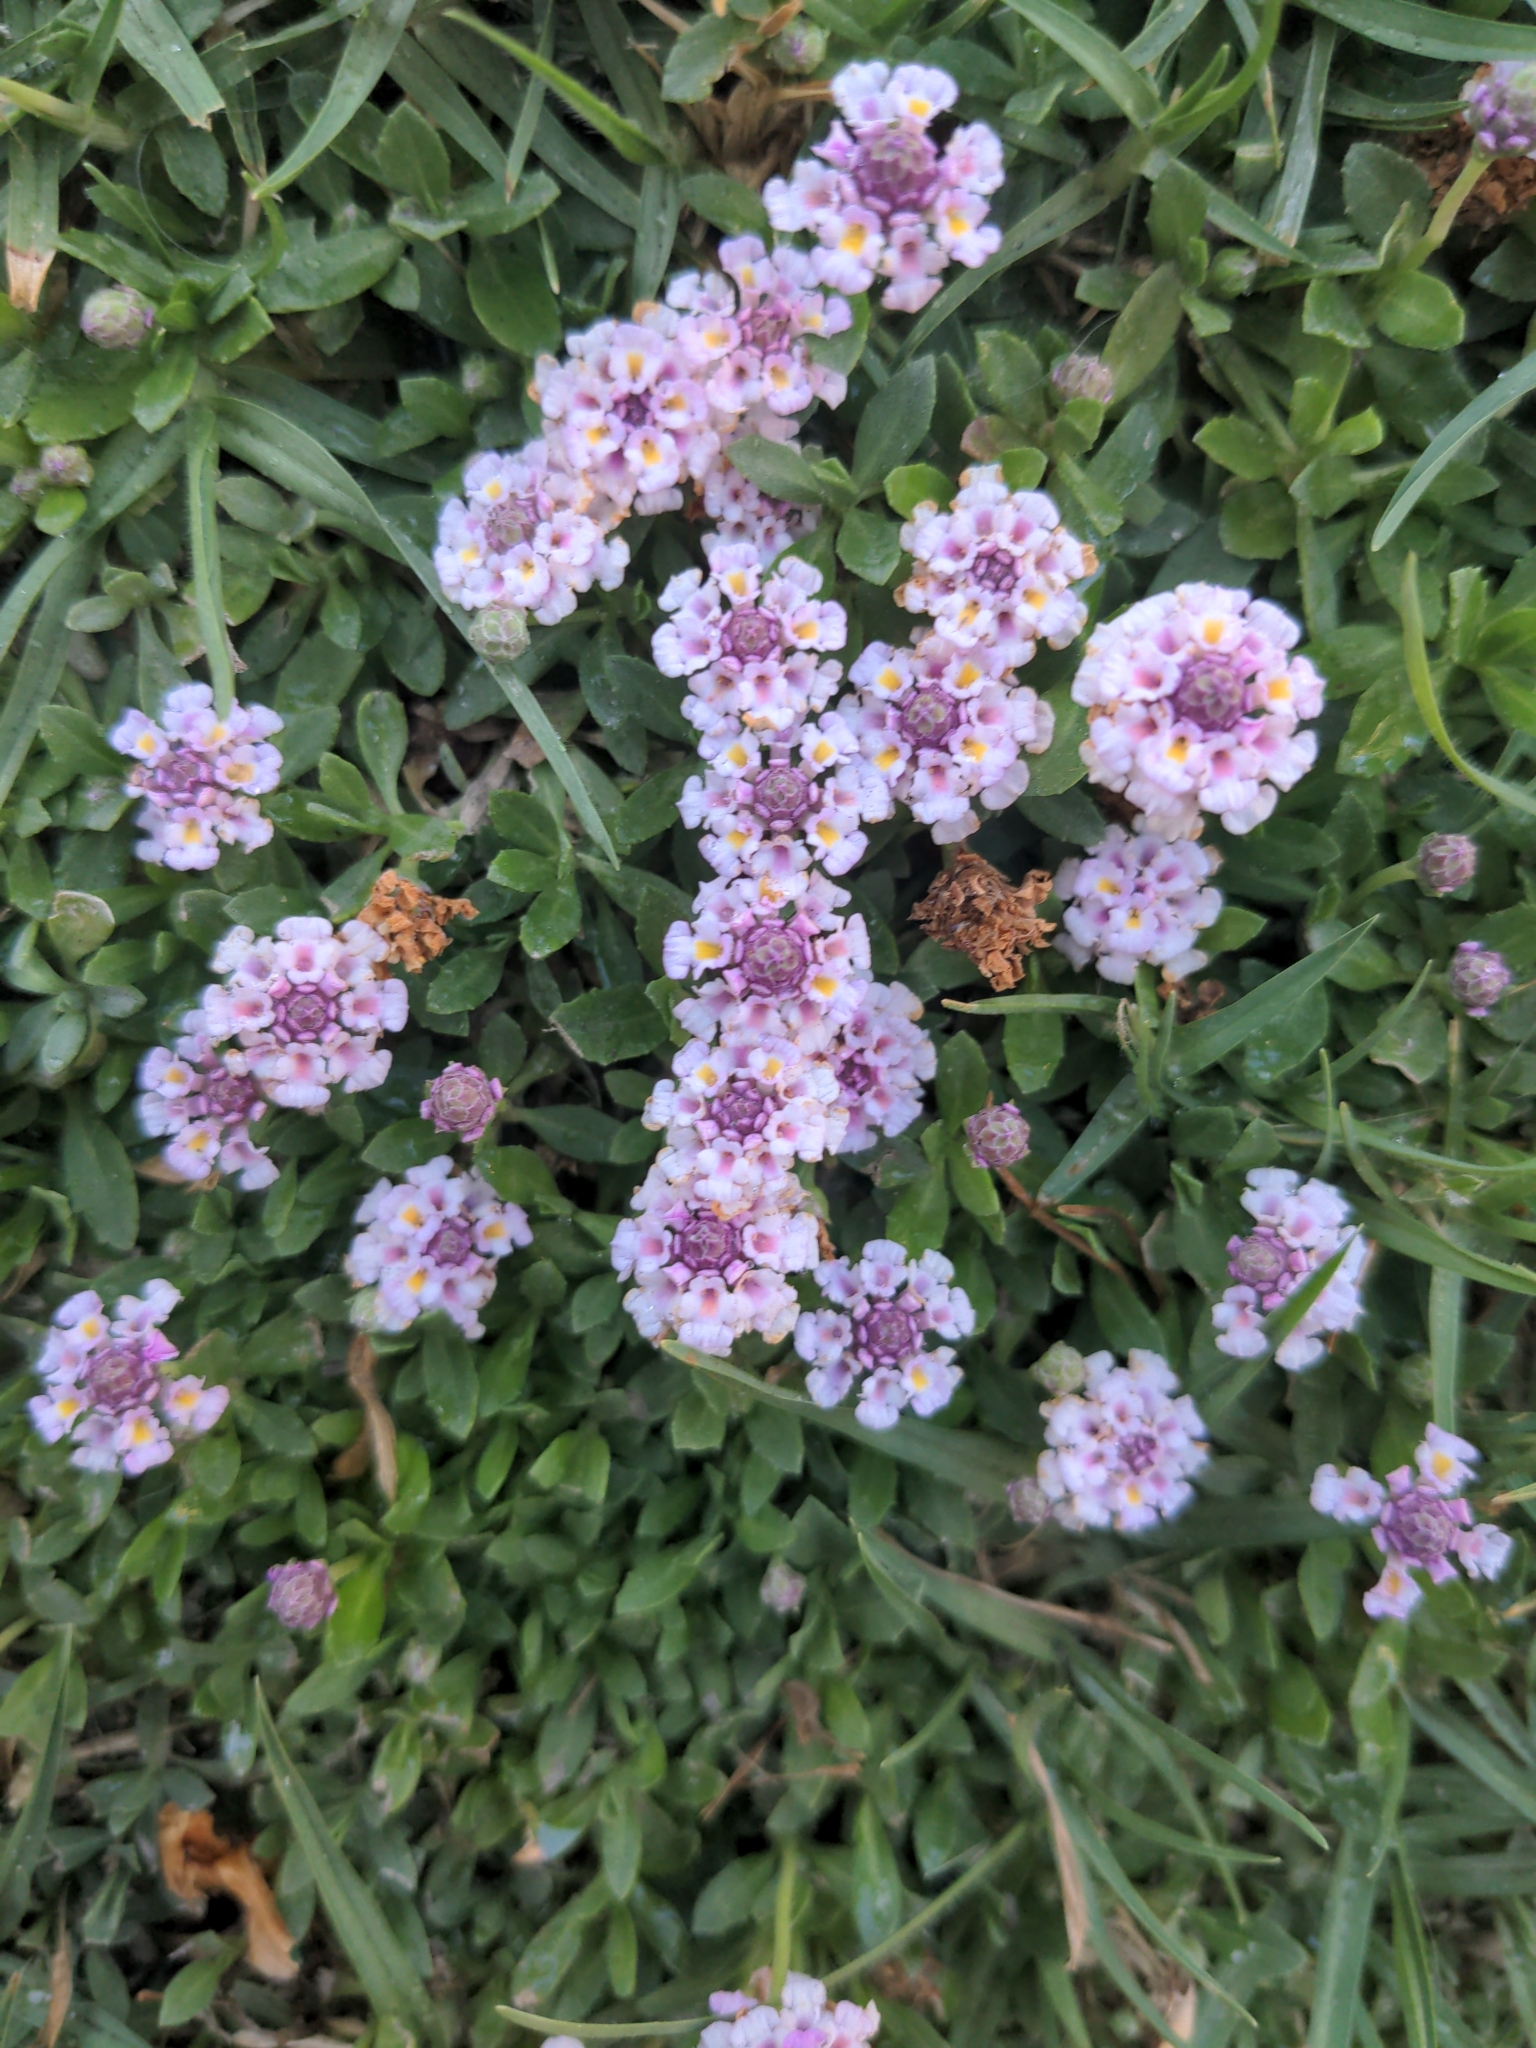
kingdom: Plantae
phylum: Tracheophyta
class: Magnoliopsida
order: Lamiales
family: Verbenaceae
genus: Phyla
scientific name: Phyla nodiflora
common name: Frogfruit
